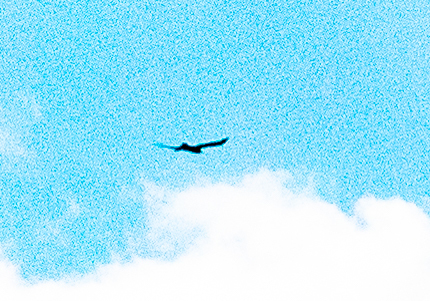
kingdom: Animalia
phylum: Chordata
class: Aves
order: Accipitriformes
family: Accipitridae
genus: Aquila
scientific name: Aquila chrysaetos
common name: Golden eagle
